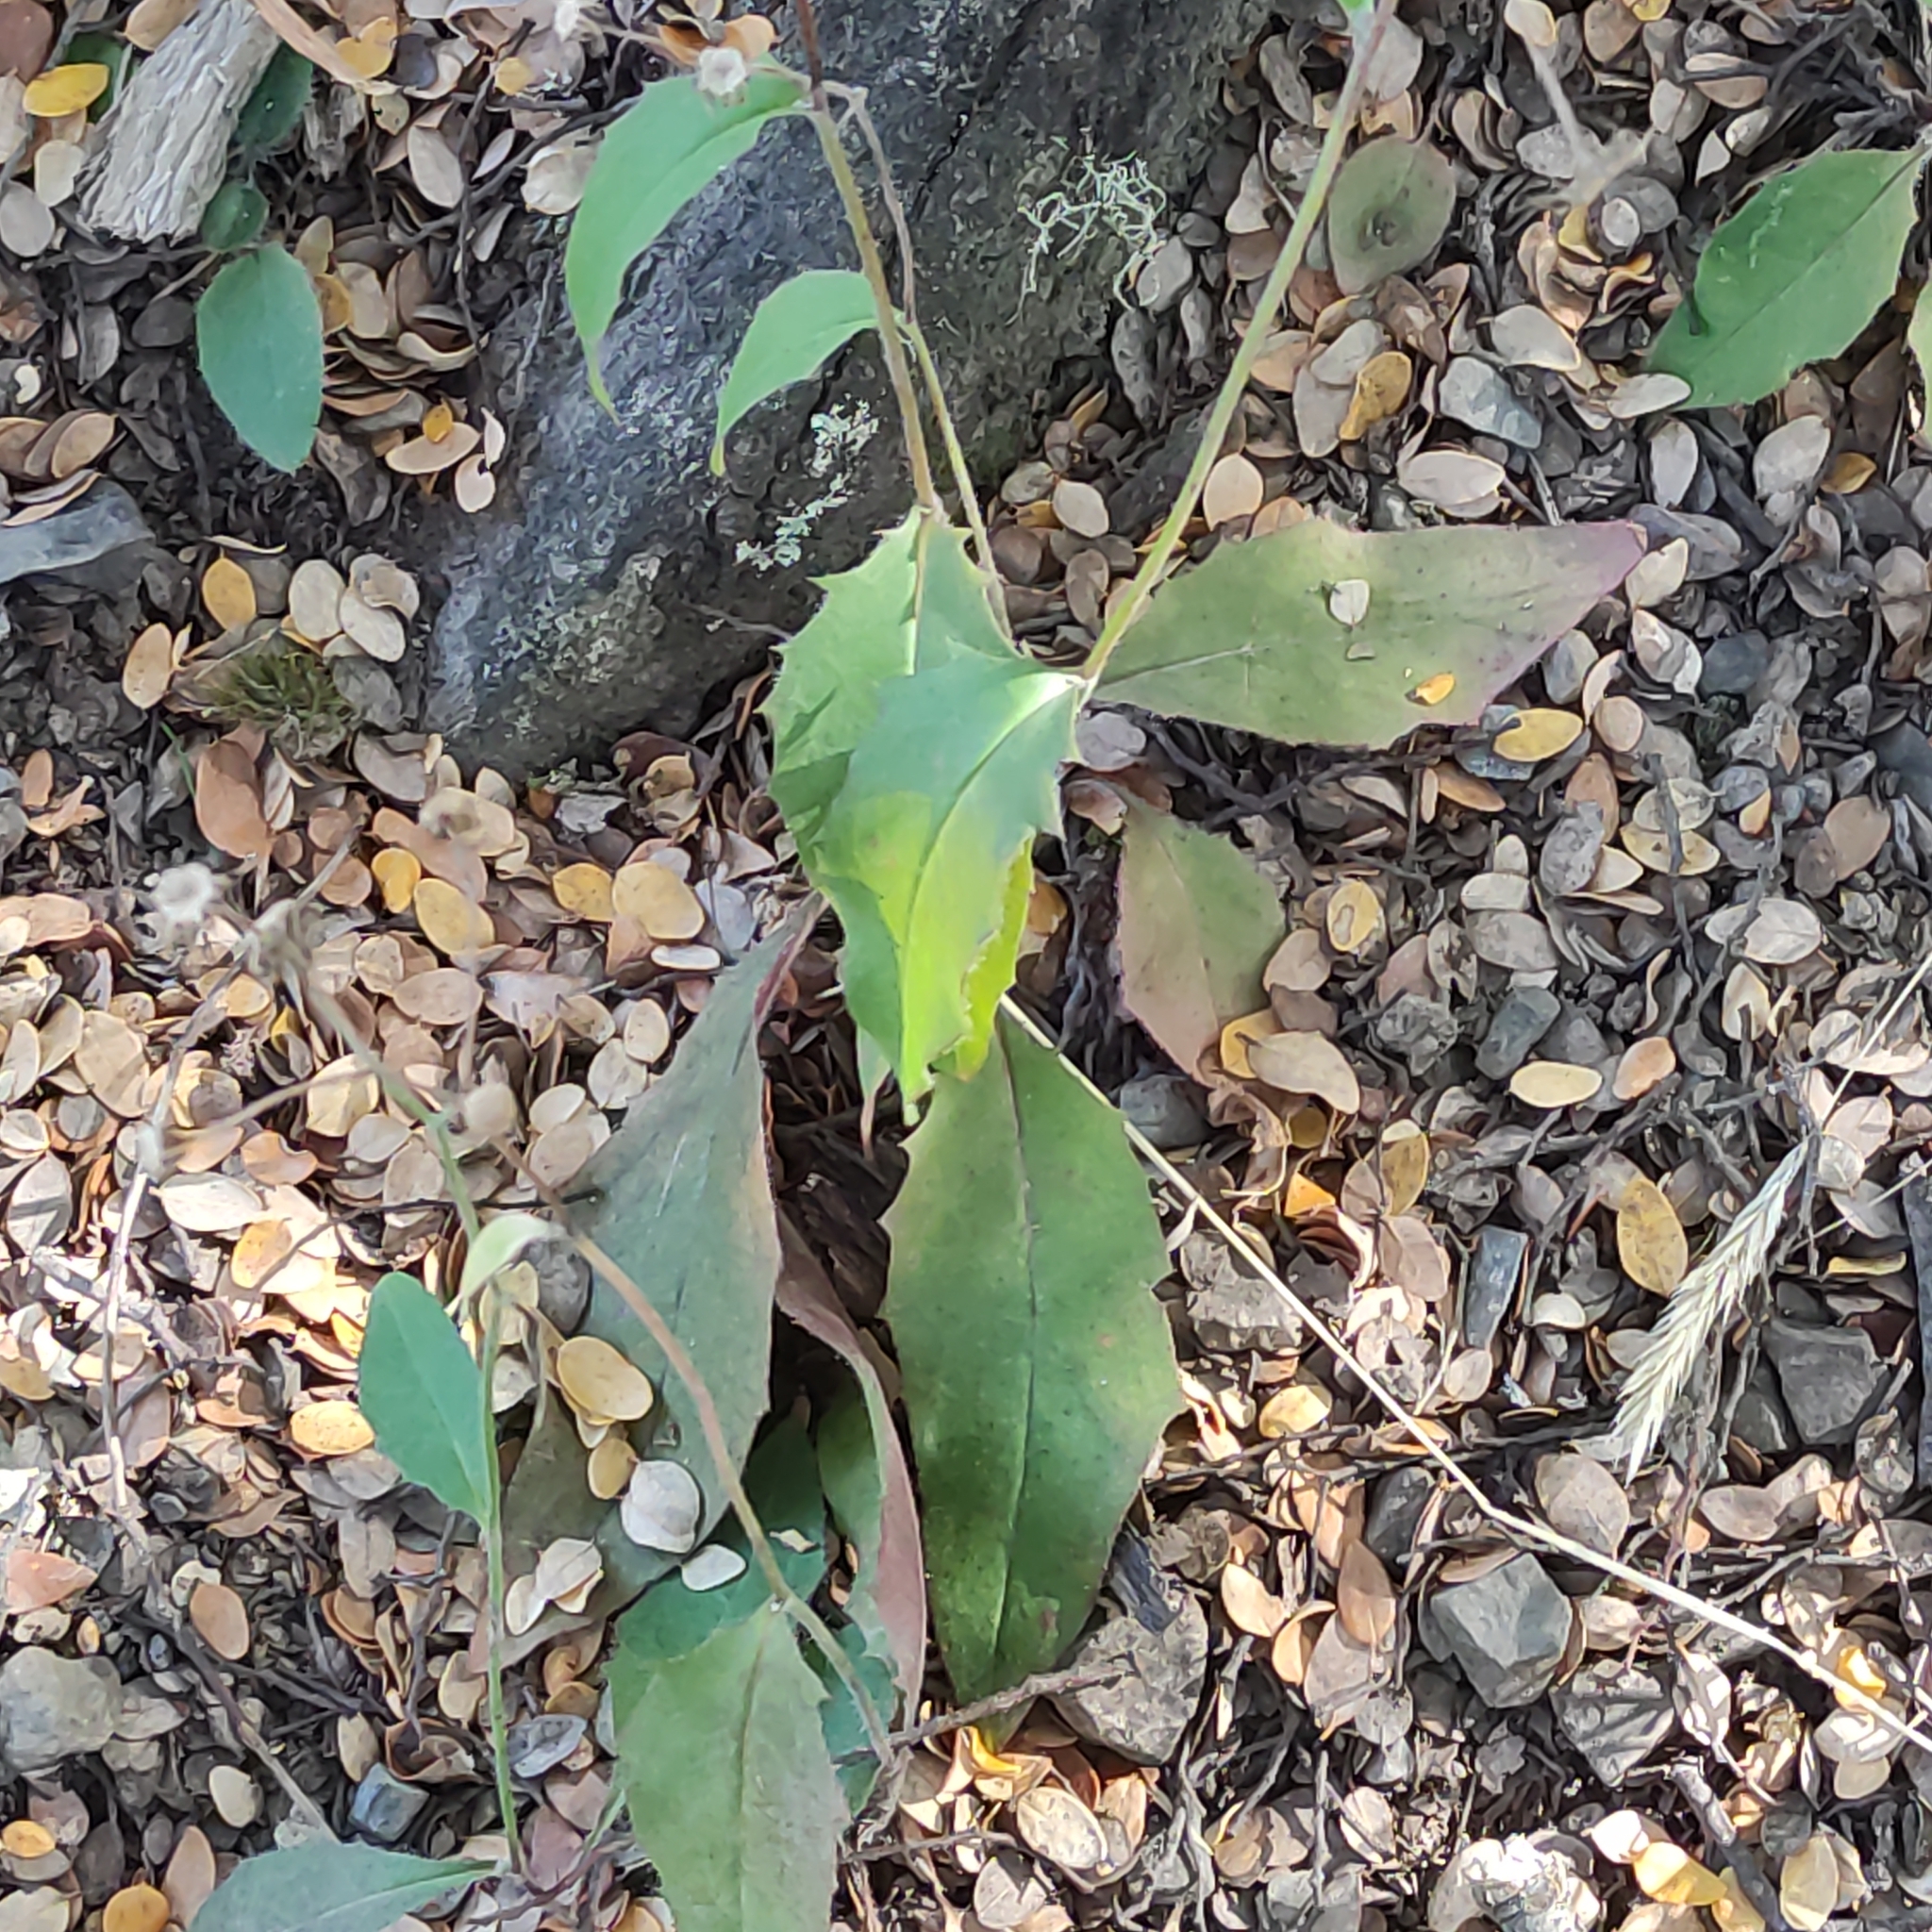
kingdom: Plantae
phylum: Tracheophyta
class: Magnoliopsida
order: Asterales
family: Asteraceae
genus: Hieracium
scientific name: Hieracium lepidulum
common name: Irregular-toothed hawkweed
